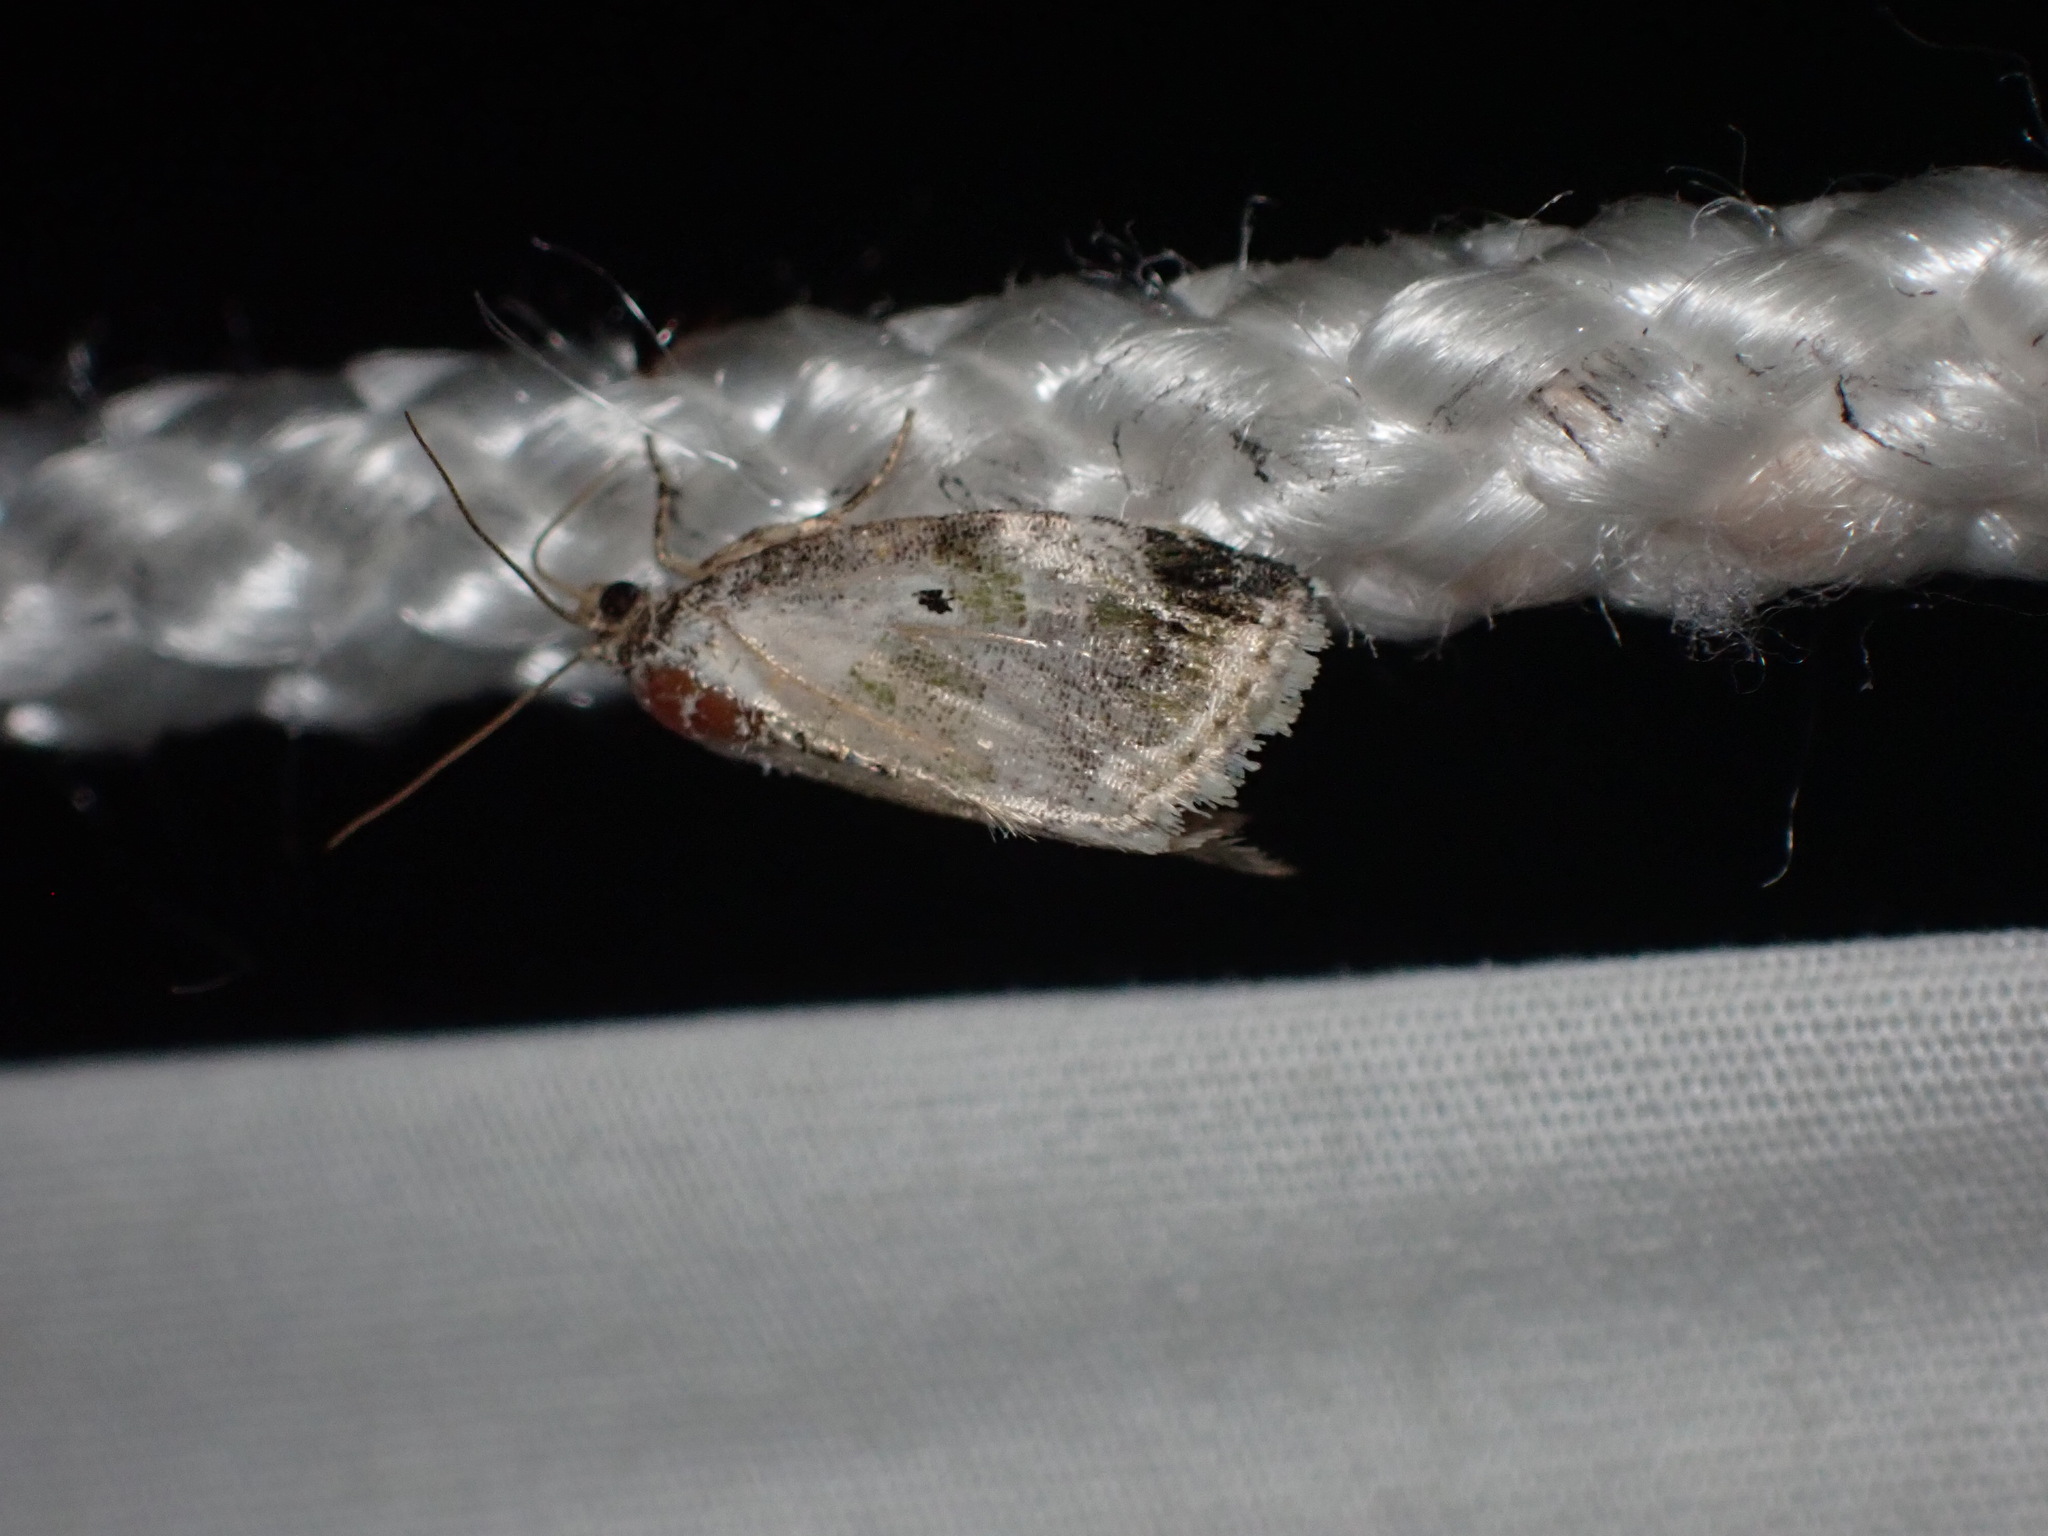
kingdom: Animalia
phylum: Arthropoda
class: Insecta
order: Lepidoptera
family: Noctuidae
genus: Maliattha
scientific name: Maliattha synochitis
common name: Black-dotted glyph
